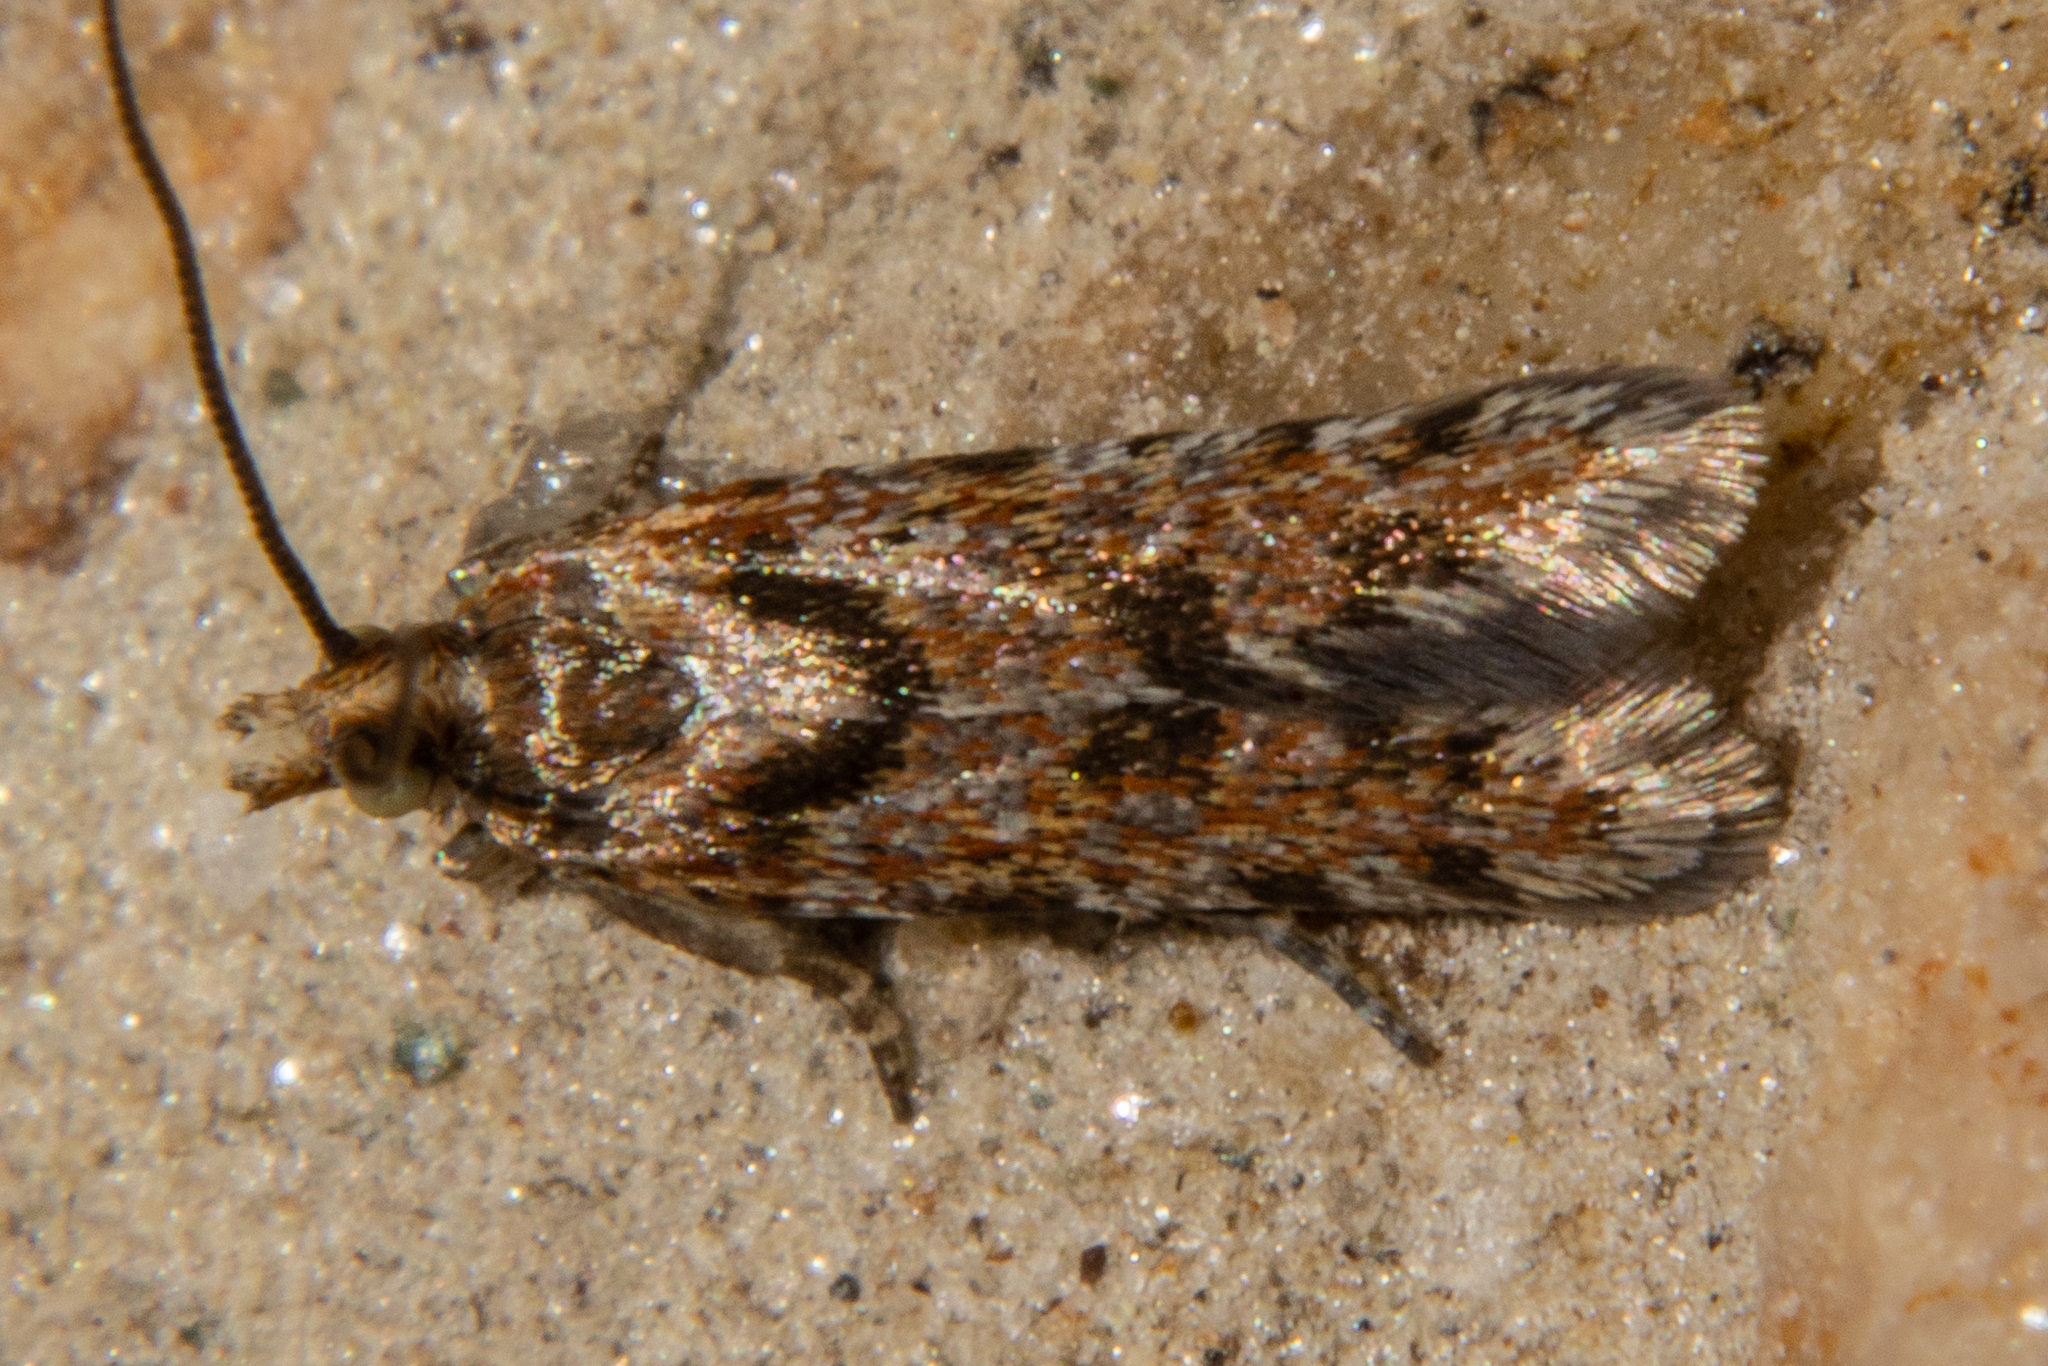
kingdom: Animalia
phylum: Arthropoda
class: Insecta
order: Lepidoptera
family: Tortricidae
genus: Eurythecta
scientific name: Eurythecta zelaea
